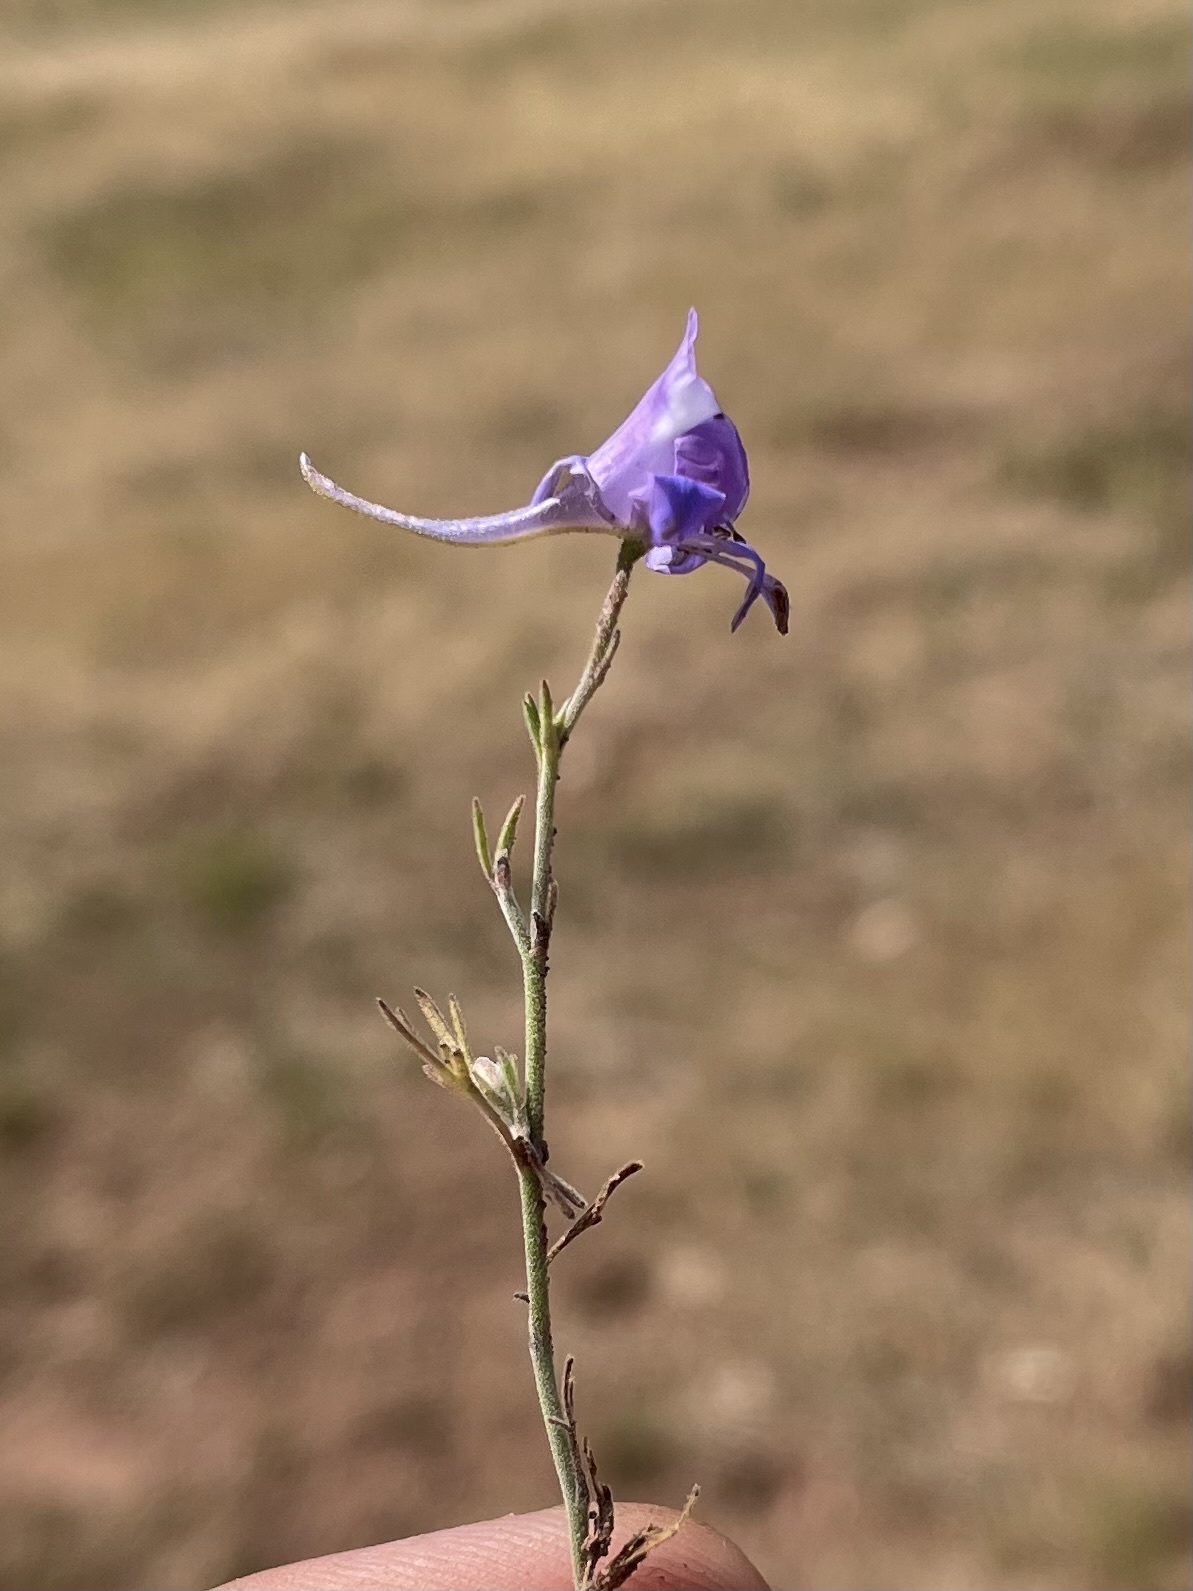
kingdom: Plantae
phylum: Tracheophyta
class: Magnoliopsida
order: Ranunculales
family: Ranunculaceae
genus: Delphinium
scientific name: Delphinium consolida
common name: Branching larkspur
